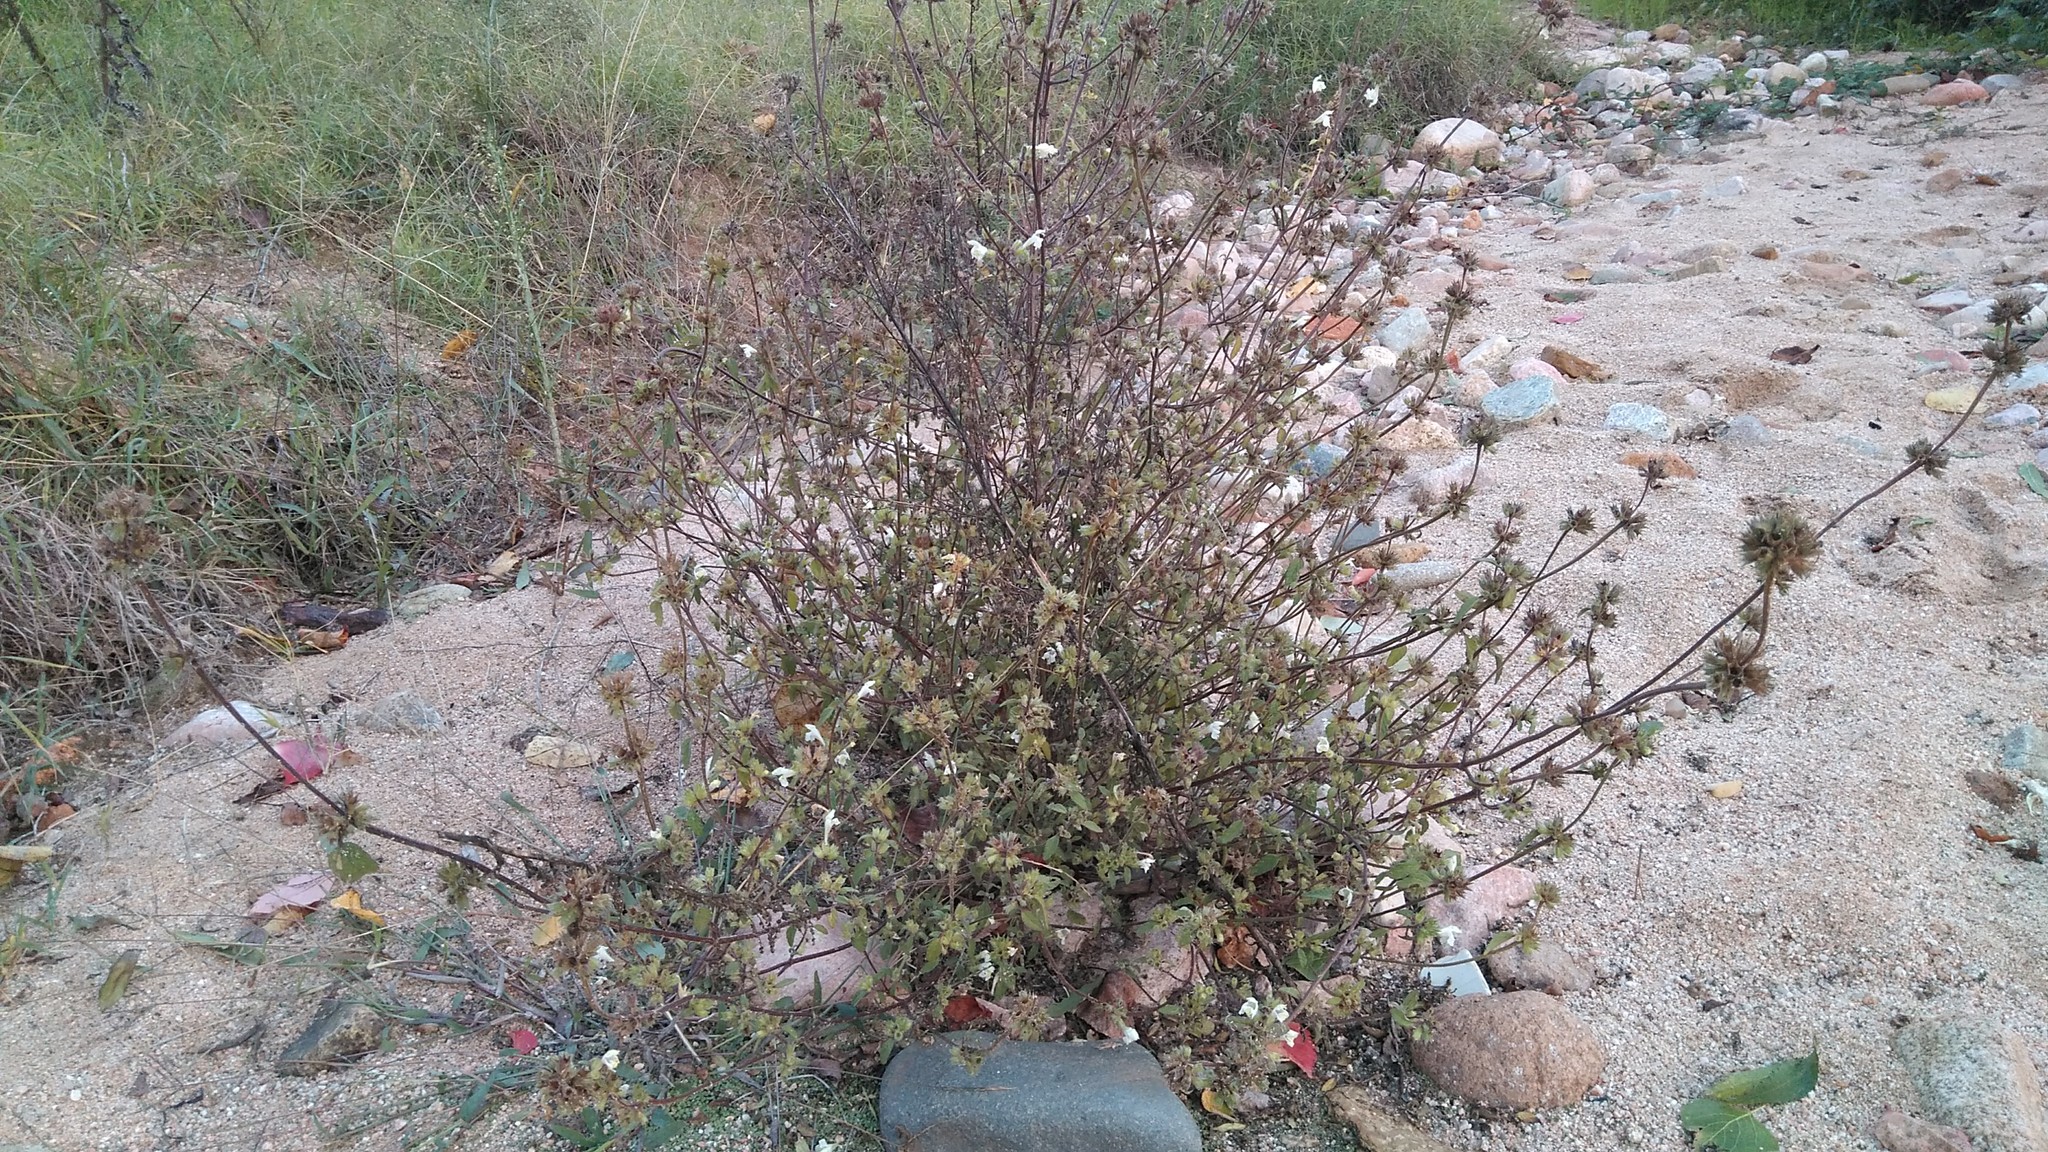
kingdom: Plantae
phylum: Tracheophyta
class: Magnoliopsida
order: Lamiales
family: Lamiaceae
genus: Galeopsis
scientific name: Galeopsis segetum
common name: Downy hemp-nettle
